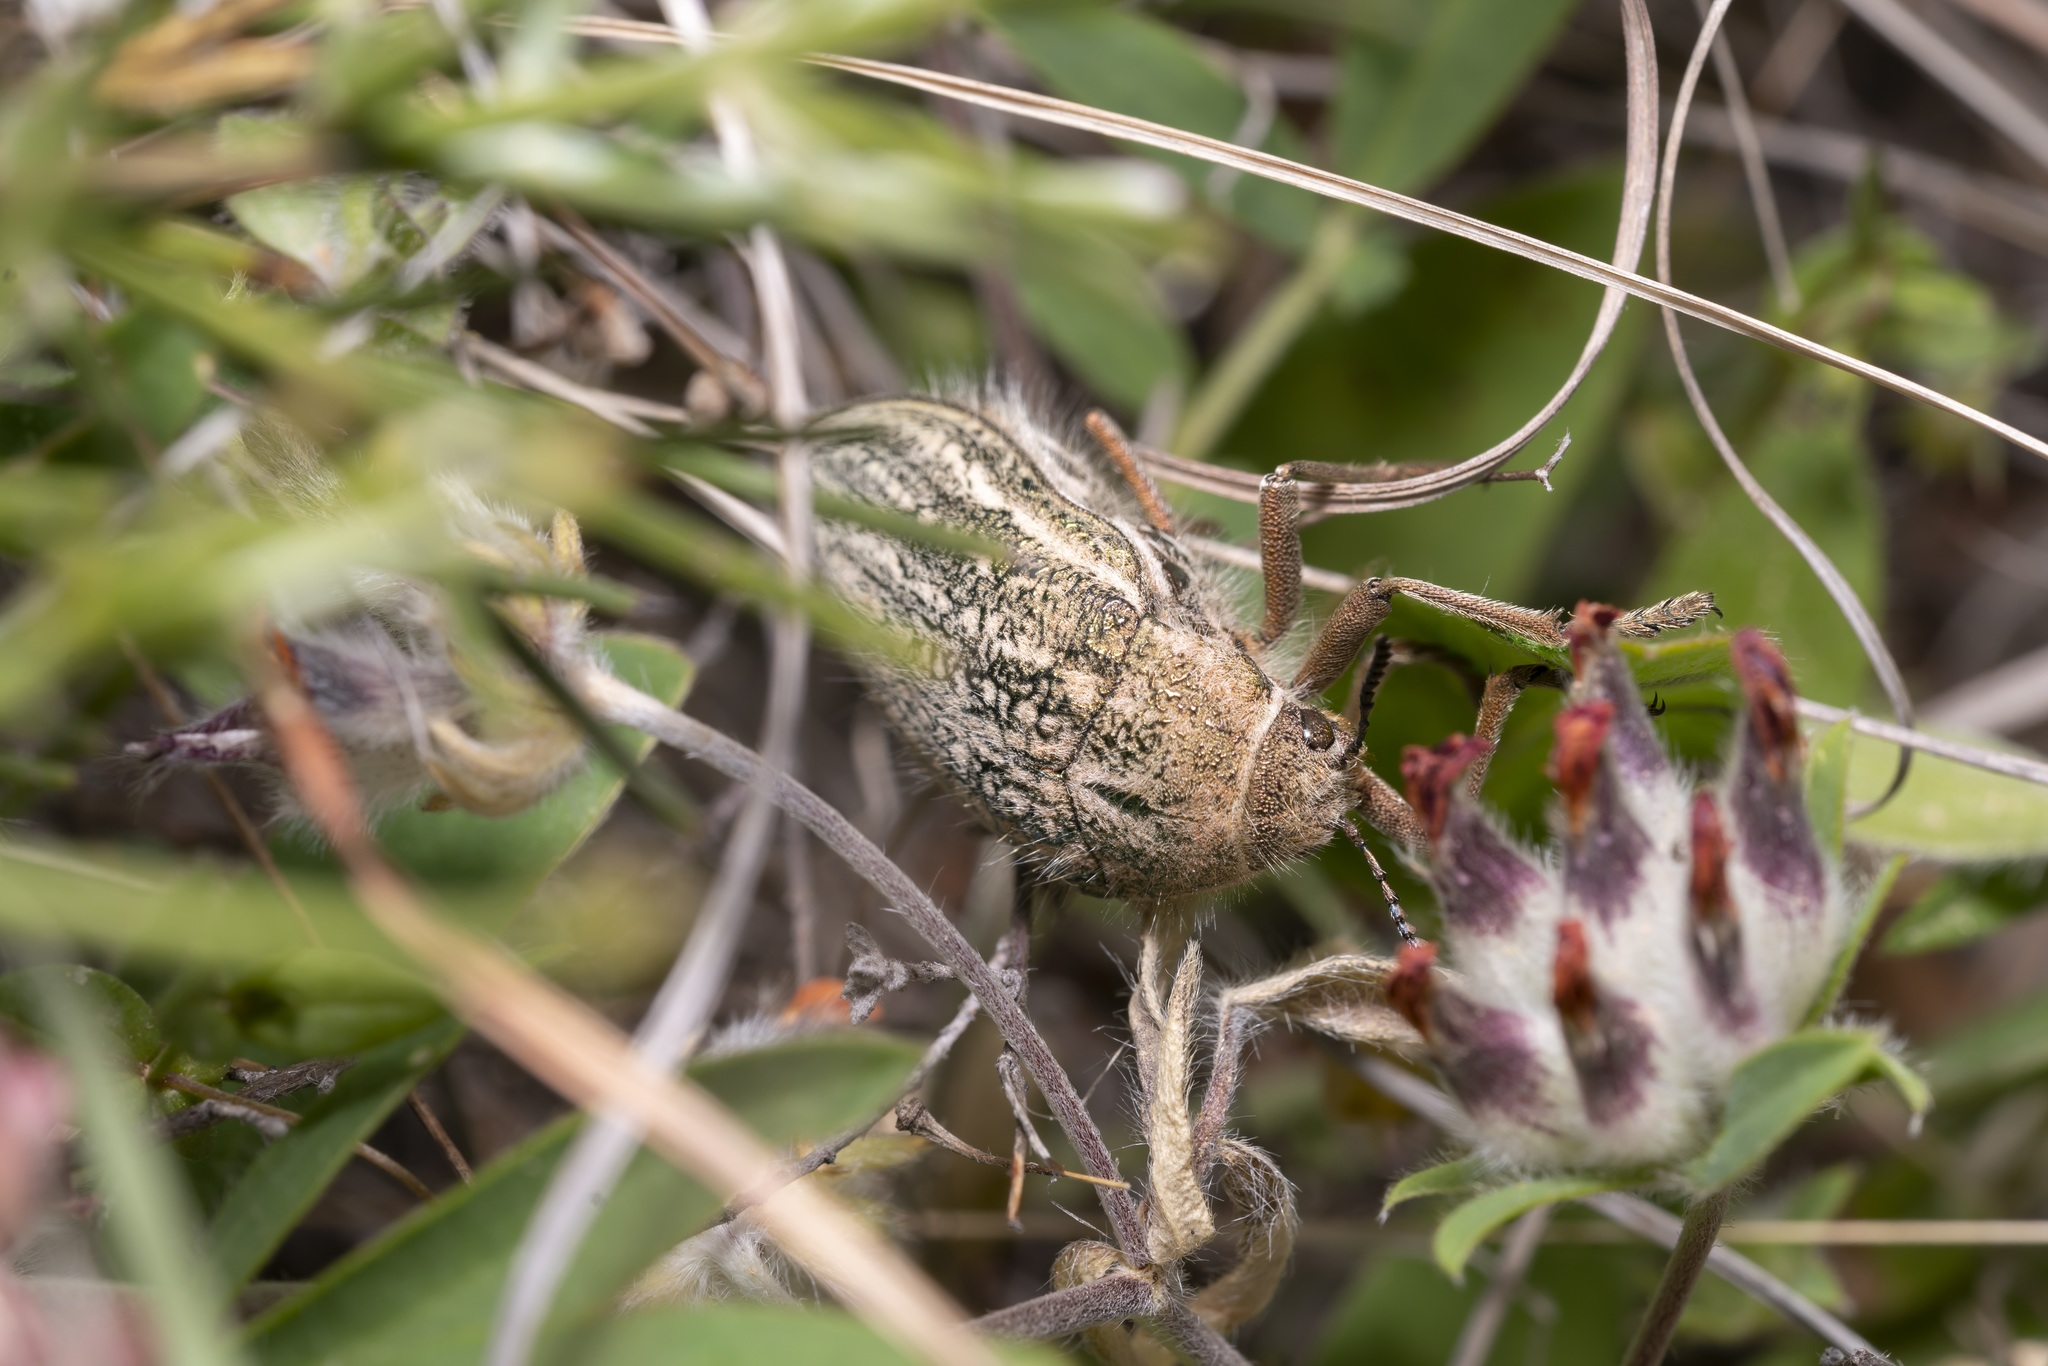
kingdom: Animalia
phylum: Arthropoda
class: Insecta
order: Coleoptera
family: Buprestidae
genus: Julodis
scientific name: Julodis ehrenbergii
